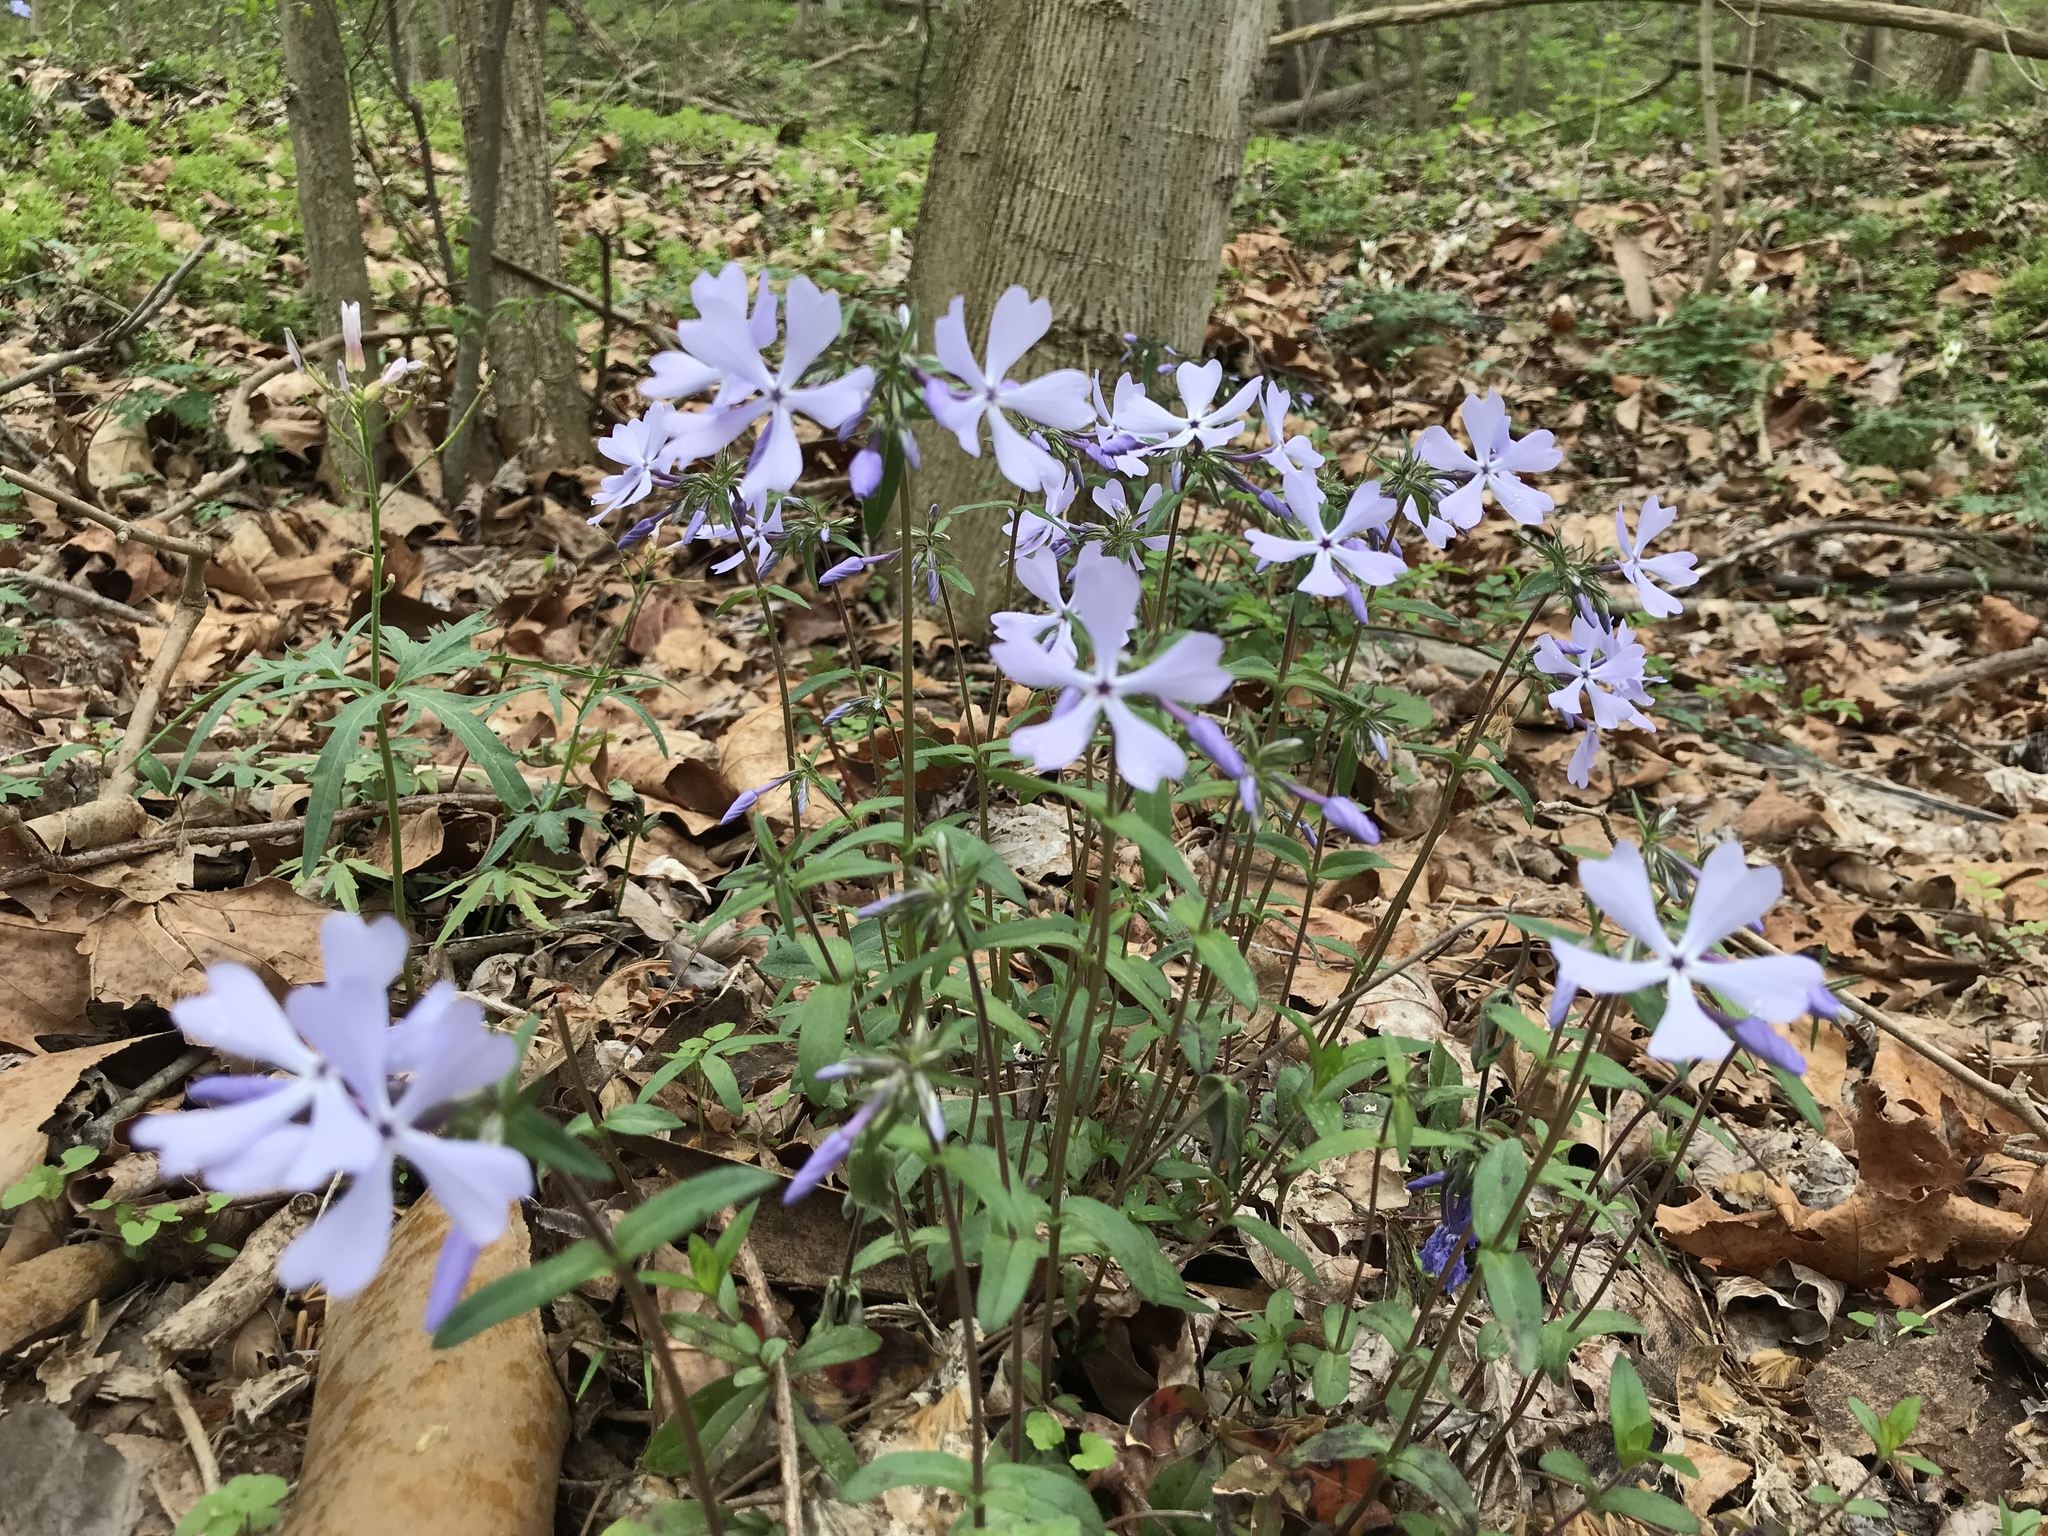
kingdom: Plantae
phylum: Tracheophyta
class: Magnoliopsida
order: Ericales
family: Polemoniaceae
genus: Phlox
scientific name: Phlox divaricata
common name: Blue phlox
